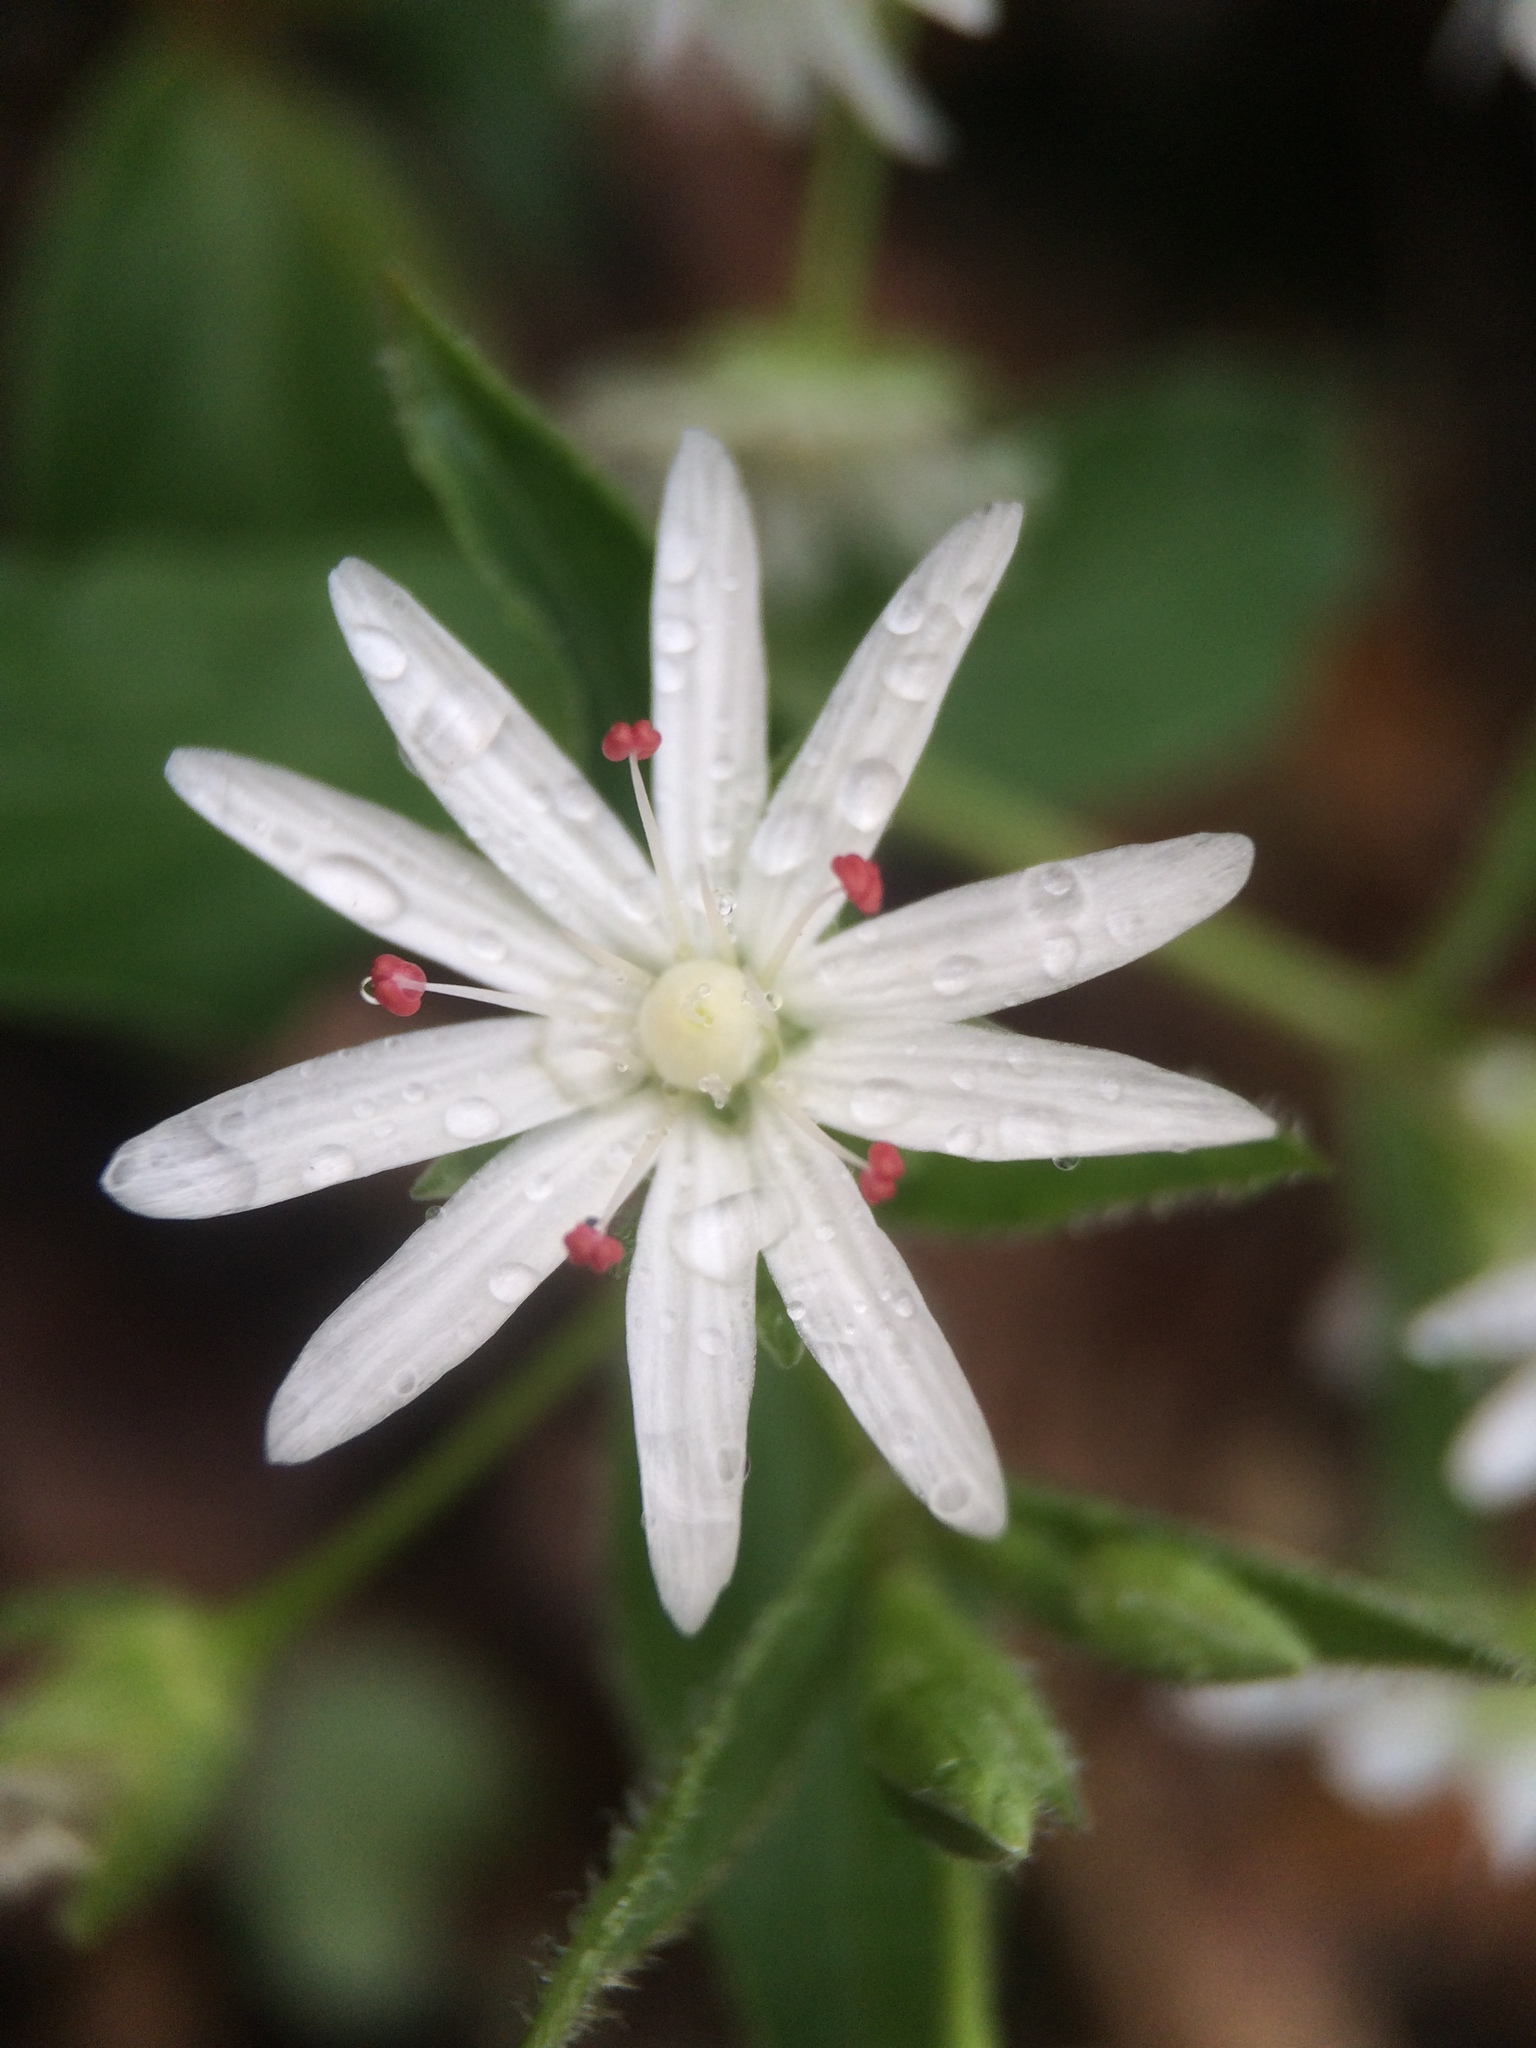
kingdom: Plantae
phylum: Tracheophyta
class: Magnoliopsida
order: Caryophyllales
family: Caryophyllaceae
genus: Stellaria
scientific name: Stellaria pubera
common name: Star chickweed
